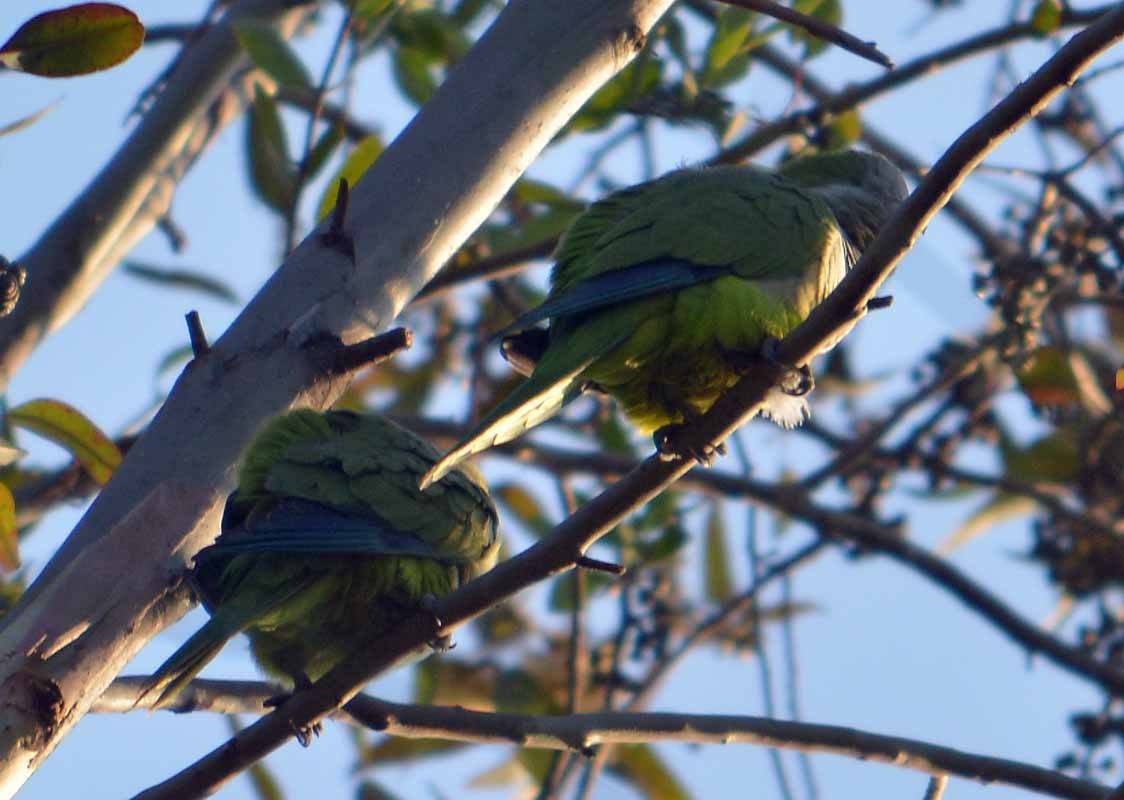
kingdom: Animalia
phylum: Chordata
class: Aves
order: Psittaciformes
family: Psittacidae
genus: Myiopsitta
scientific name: Myiopsitta monachus
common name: Monk parakeet
